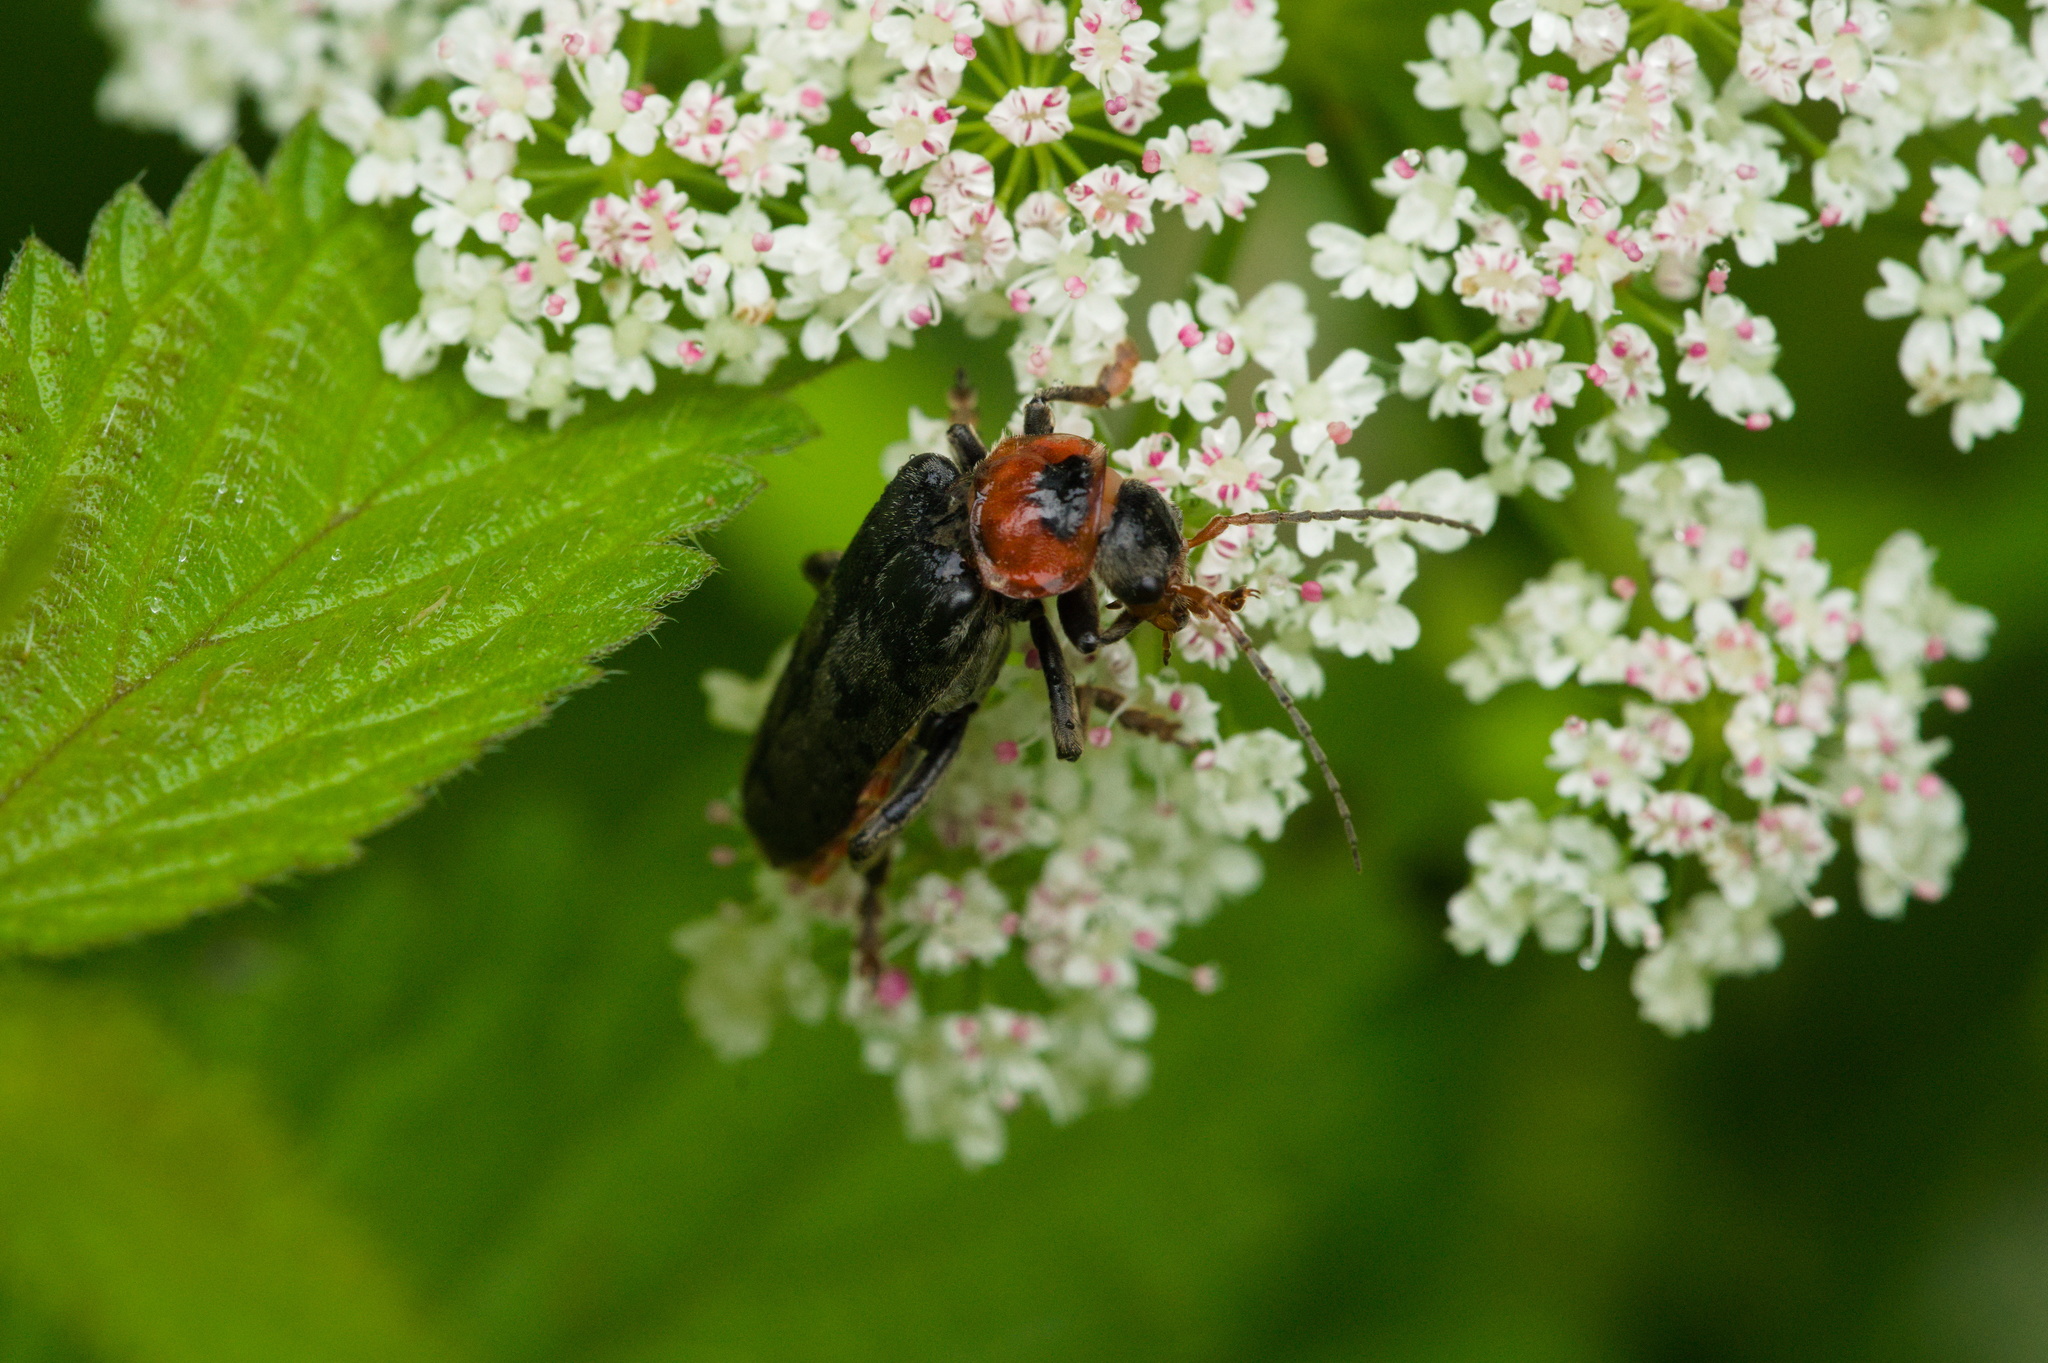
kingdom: Animalia
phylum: Arthropoda
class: Insecta
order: Coleoptera
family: Cantharidae
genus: Cantharis
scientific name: Cantharis fusca
